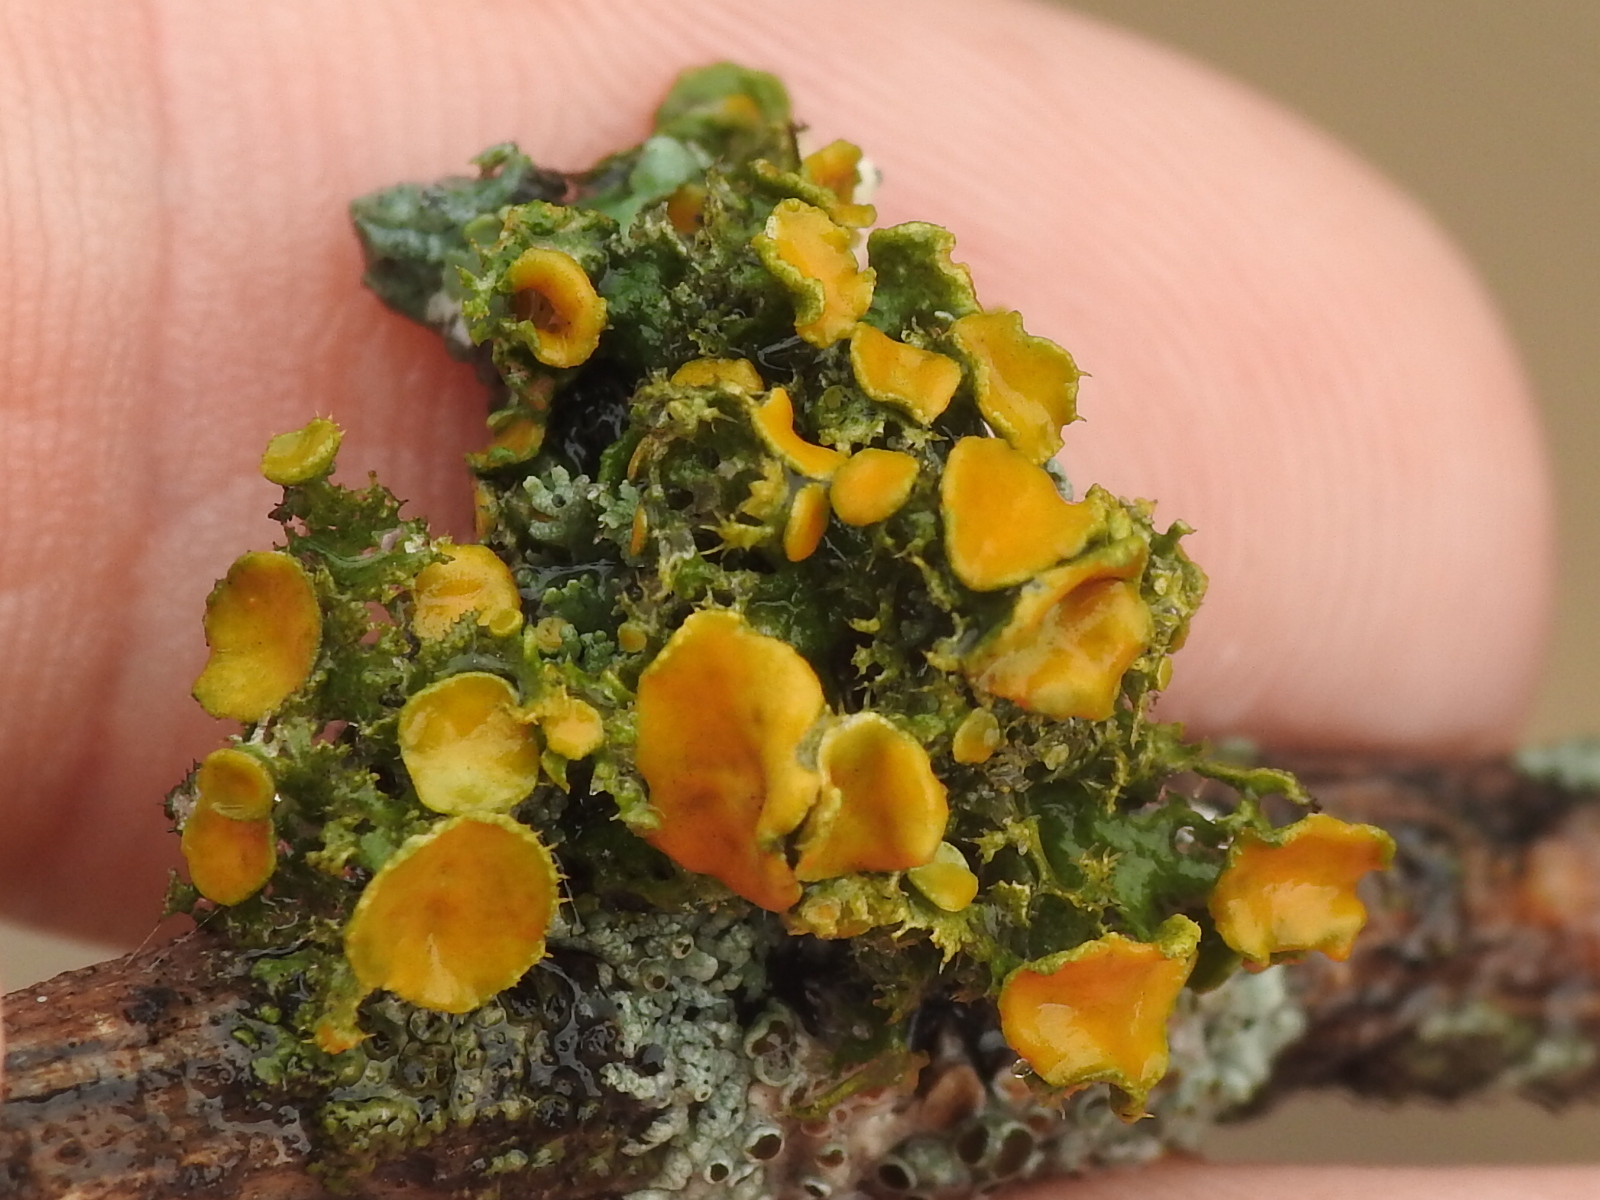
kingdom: Fungi
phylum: Ascomycota
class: Lecanoromycetes
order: Teloschistales
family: Teloschistaceae
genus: Niorma
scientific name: Niorma chrysophthalma
